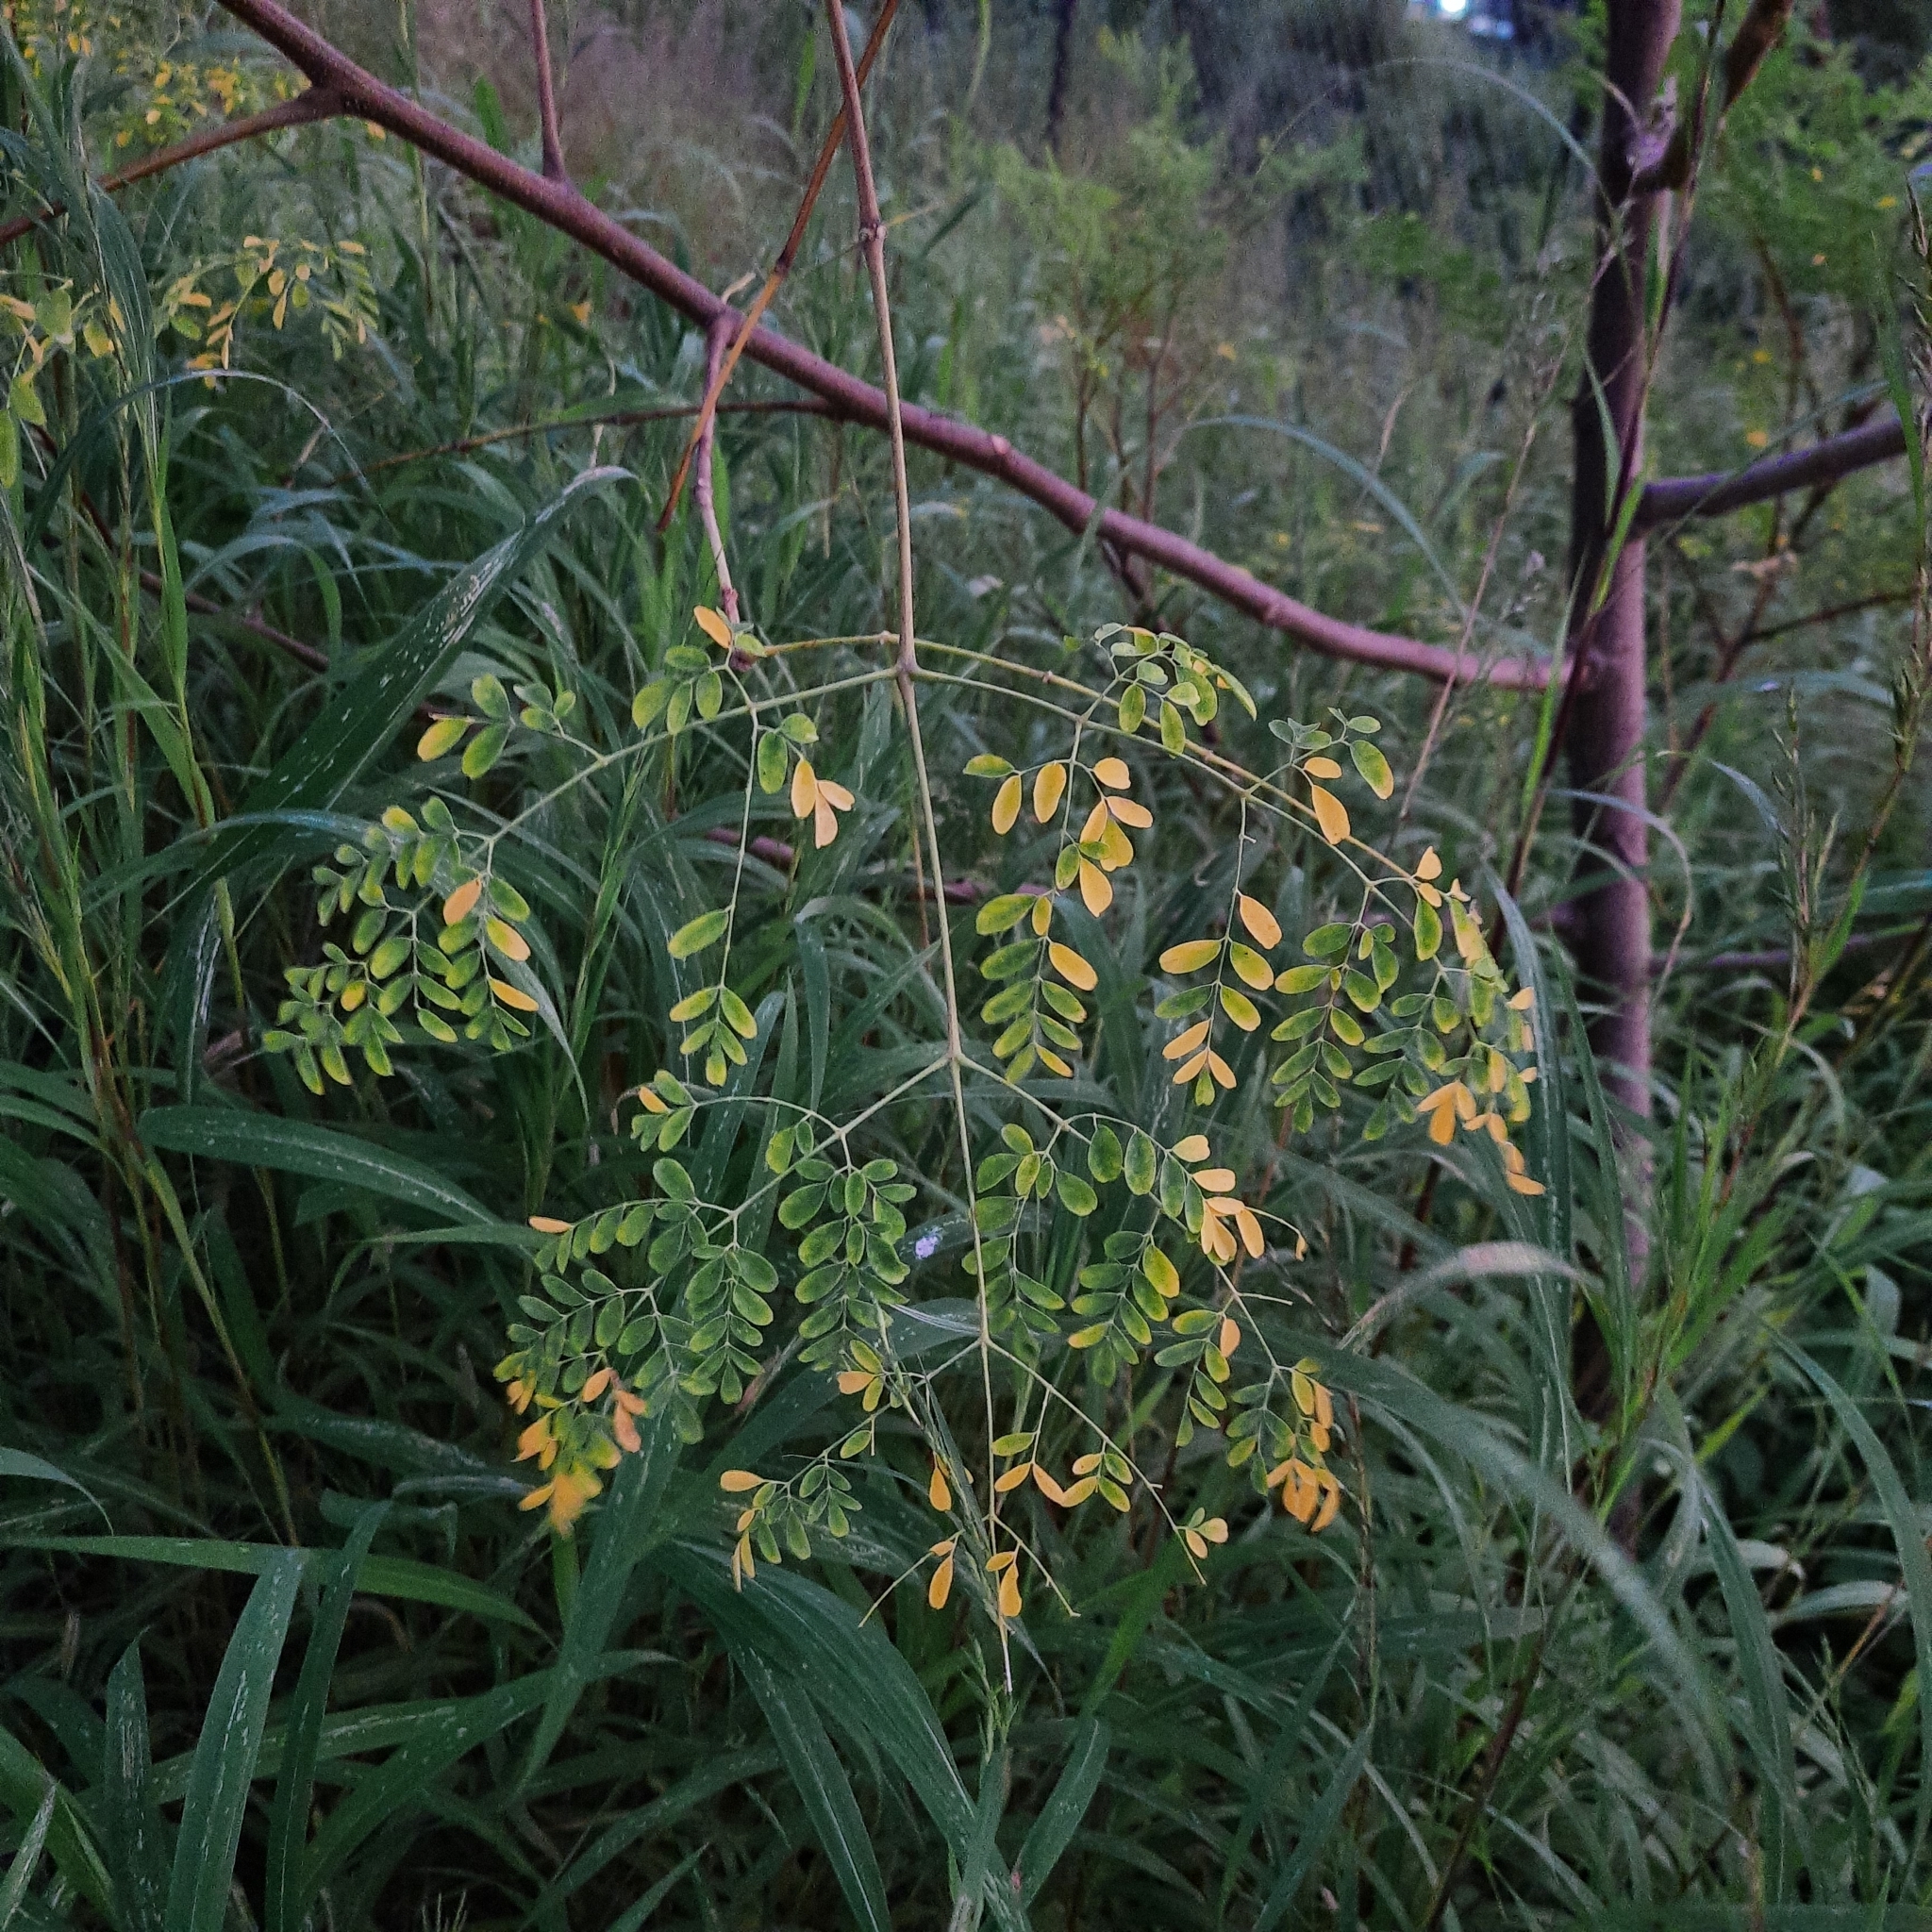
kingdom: Plantae
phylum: Tracheophyta
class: Magnoliopsida
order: Brassicales
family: Moringaceae
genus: Moringa
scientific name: Moringa oleifera
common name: Horseradish-tree
